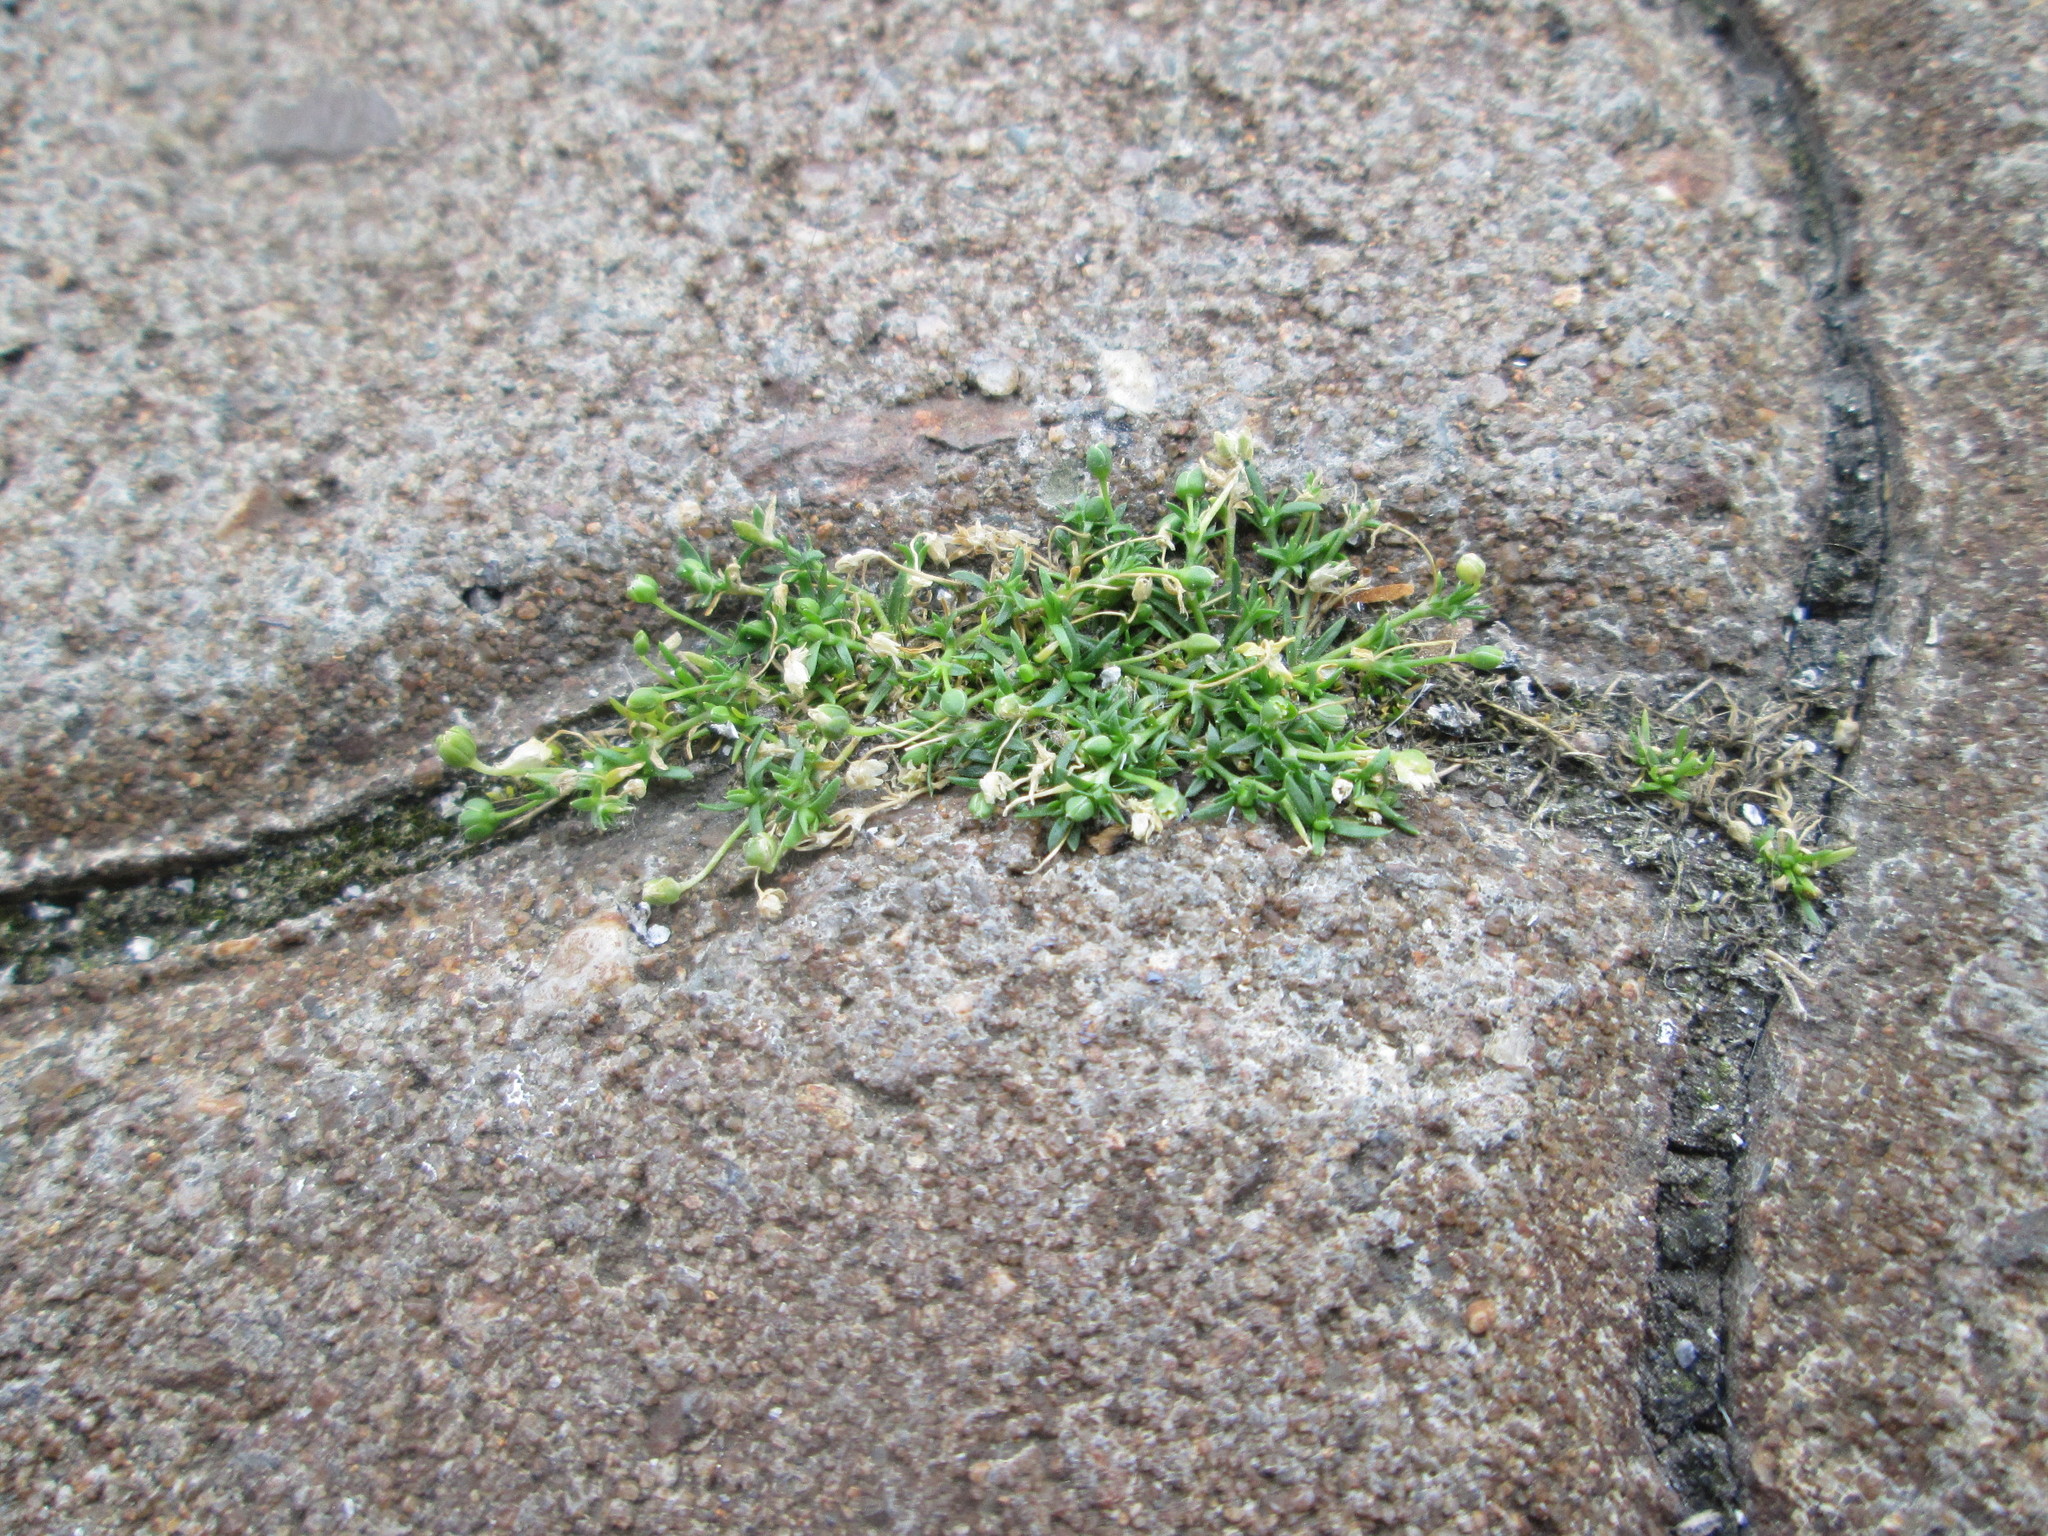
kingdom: Plantae
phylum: Tracheophyta
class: Magnoliopsida
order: Caryophyllales
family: Caryophyllaceae
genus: Sagina
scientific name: Sagina procumbens
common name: Procumbent pearlwort
